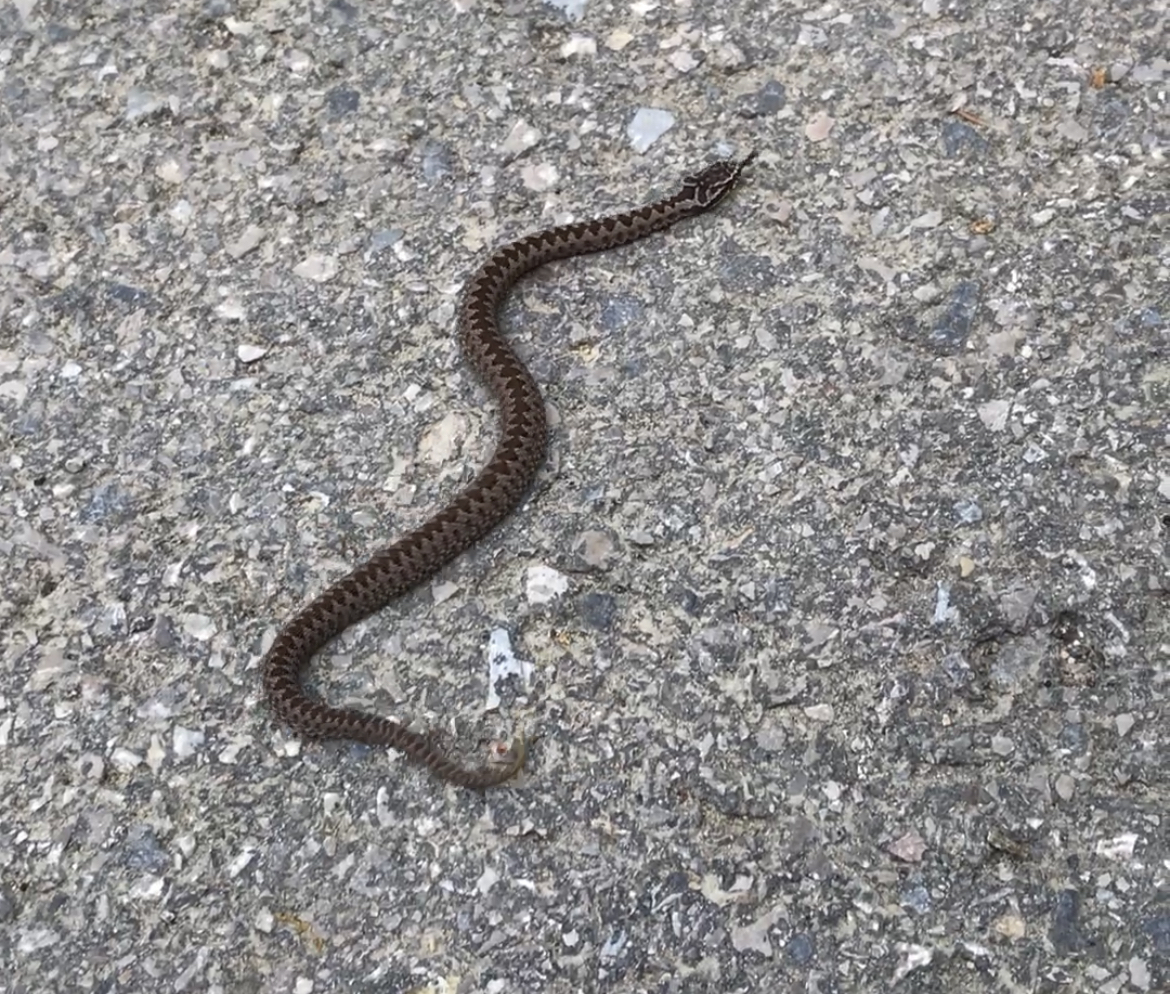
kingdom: Animalia
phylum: Chordata
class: Squamata
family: Viperidae
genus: Vipera
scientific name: Vipera berus
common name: Adder
